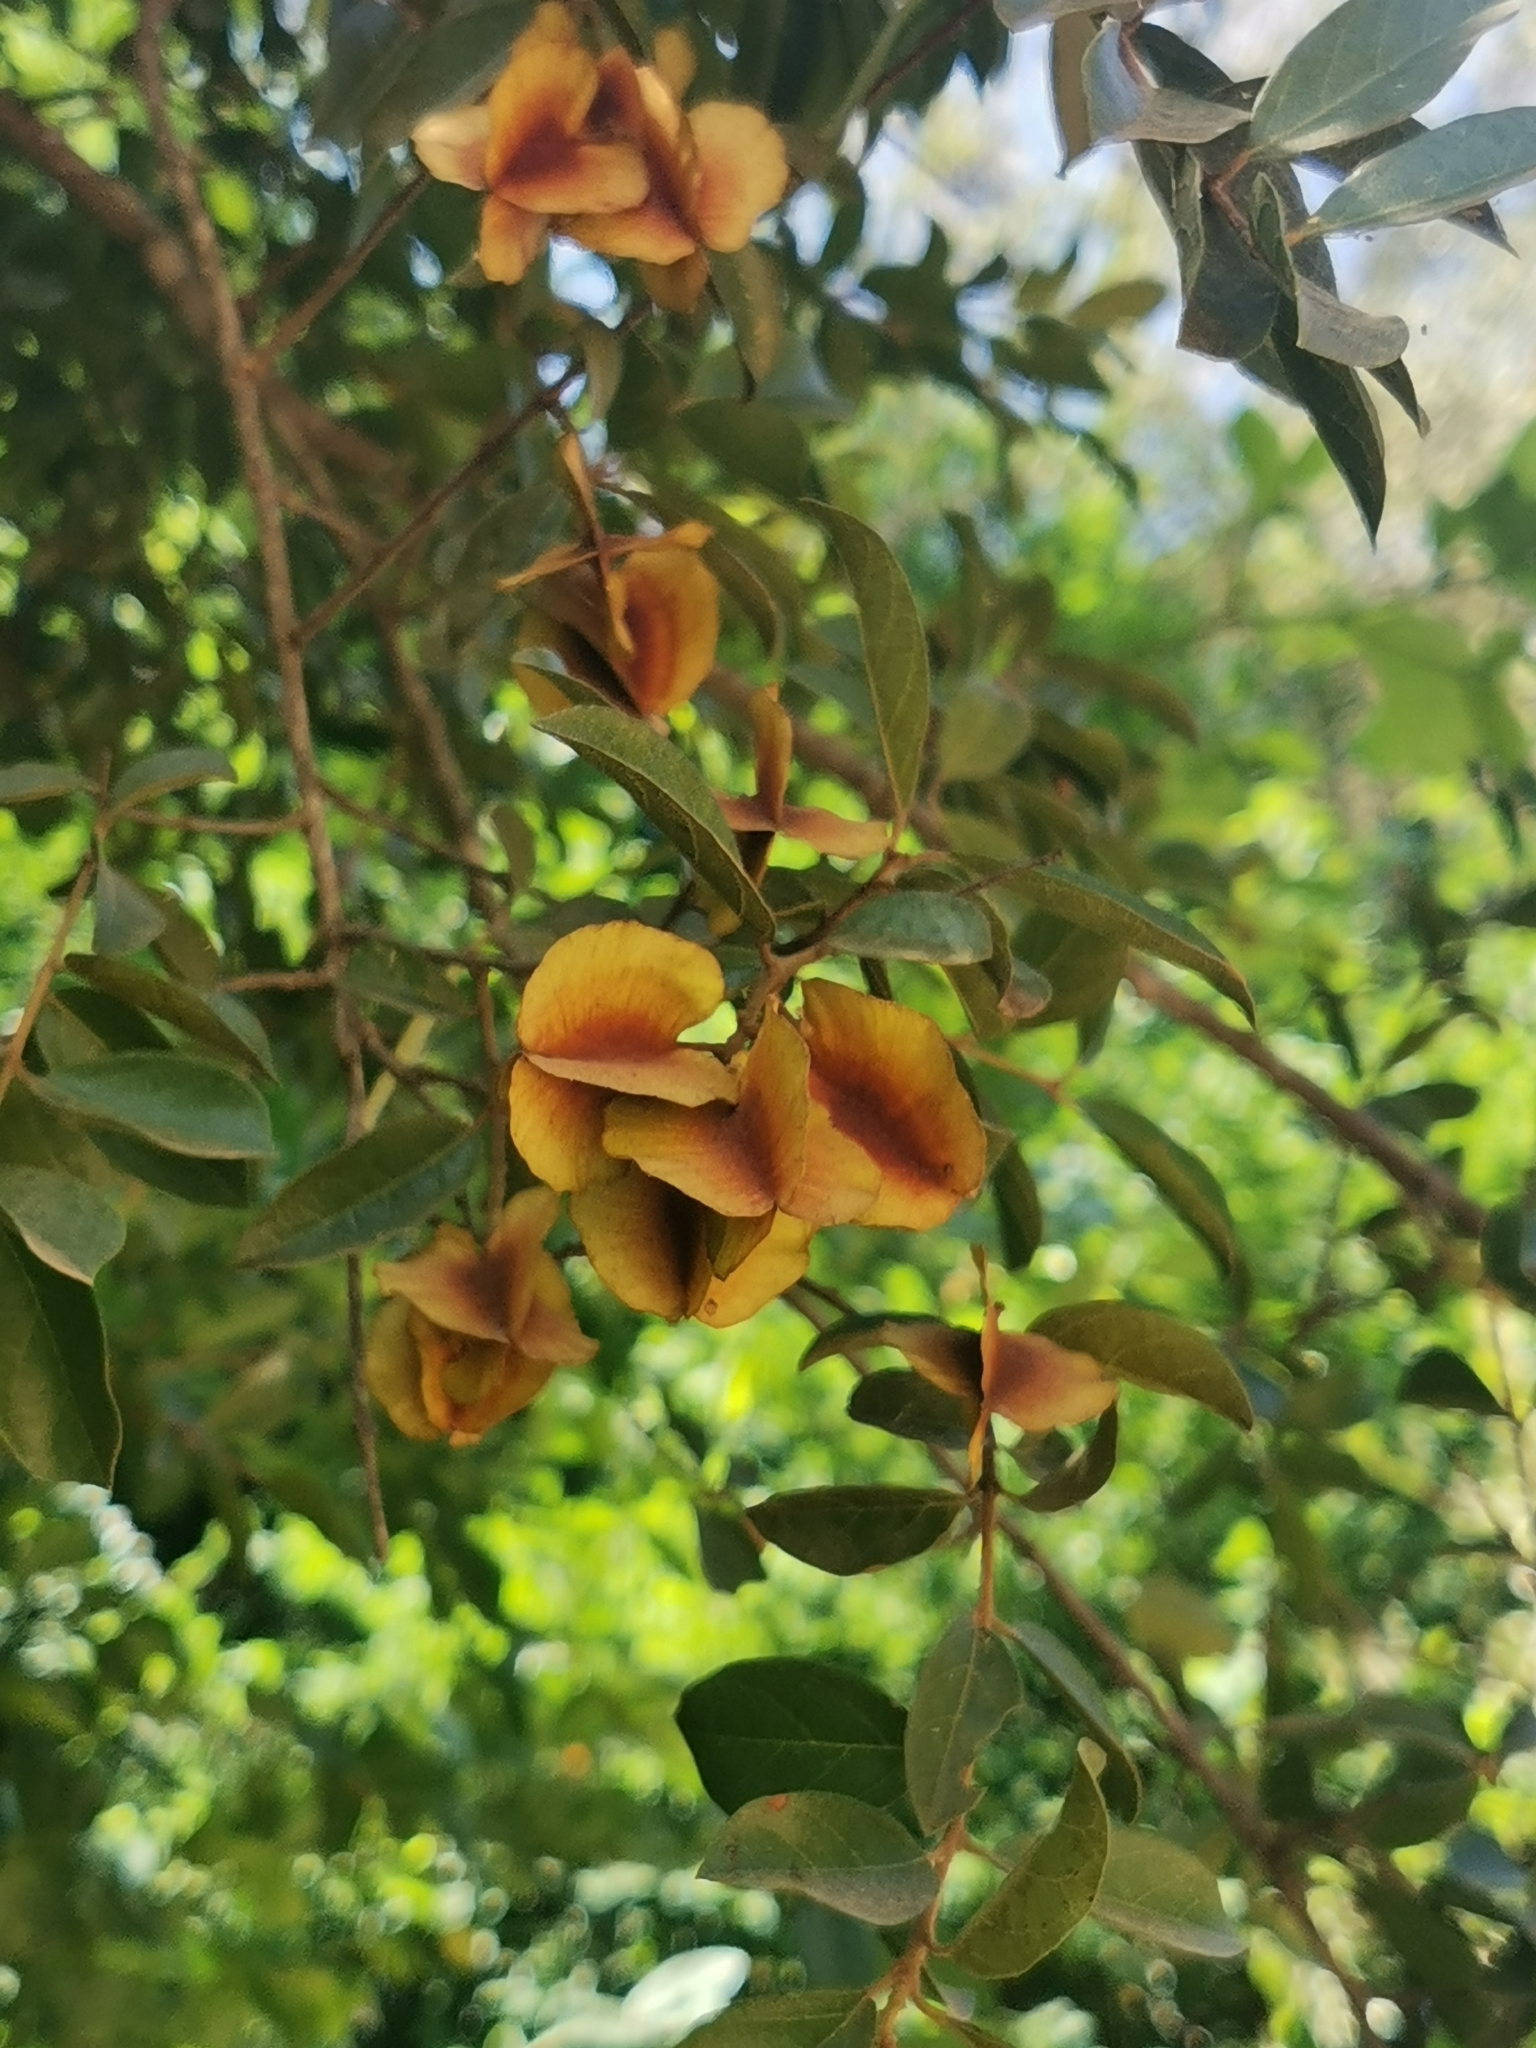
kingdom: Plantae
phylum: Tracheophyta
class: Magnoliopsida
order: Myrtales
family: Combretaceae
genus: Combretum
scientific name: Combretum hereroense
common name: Russet bushwillow
